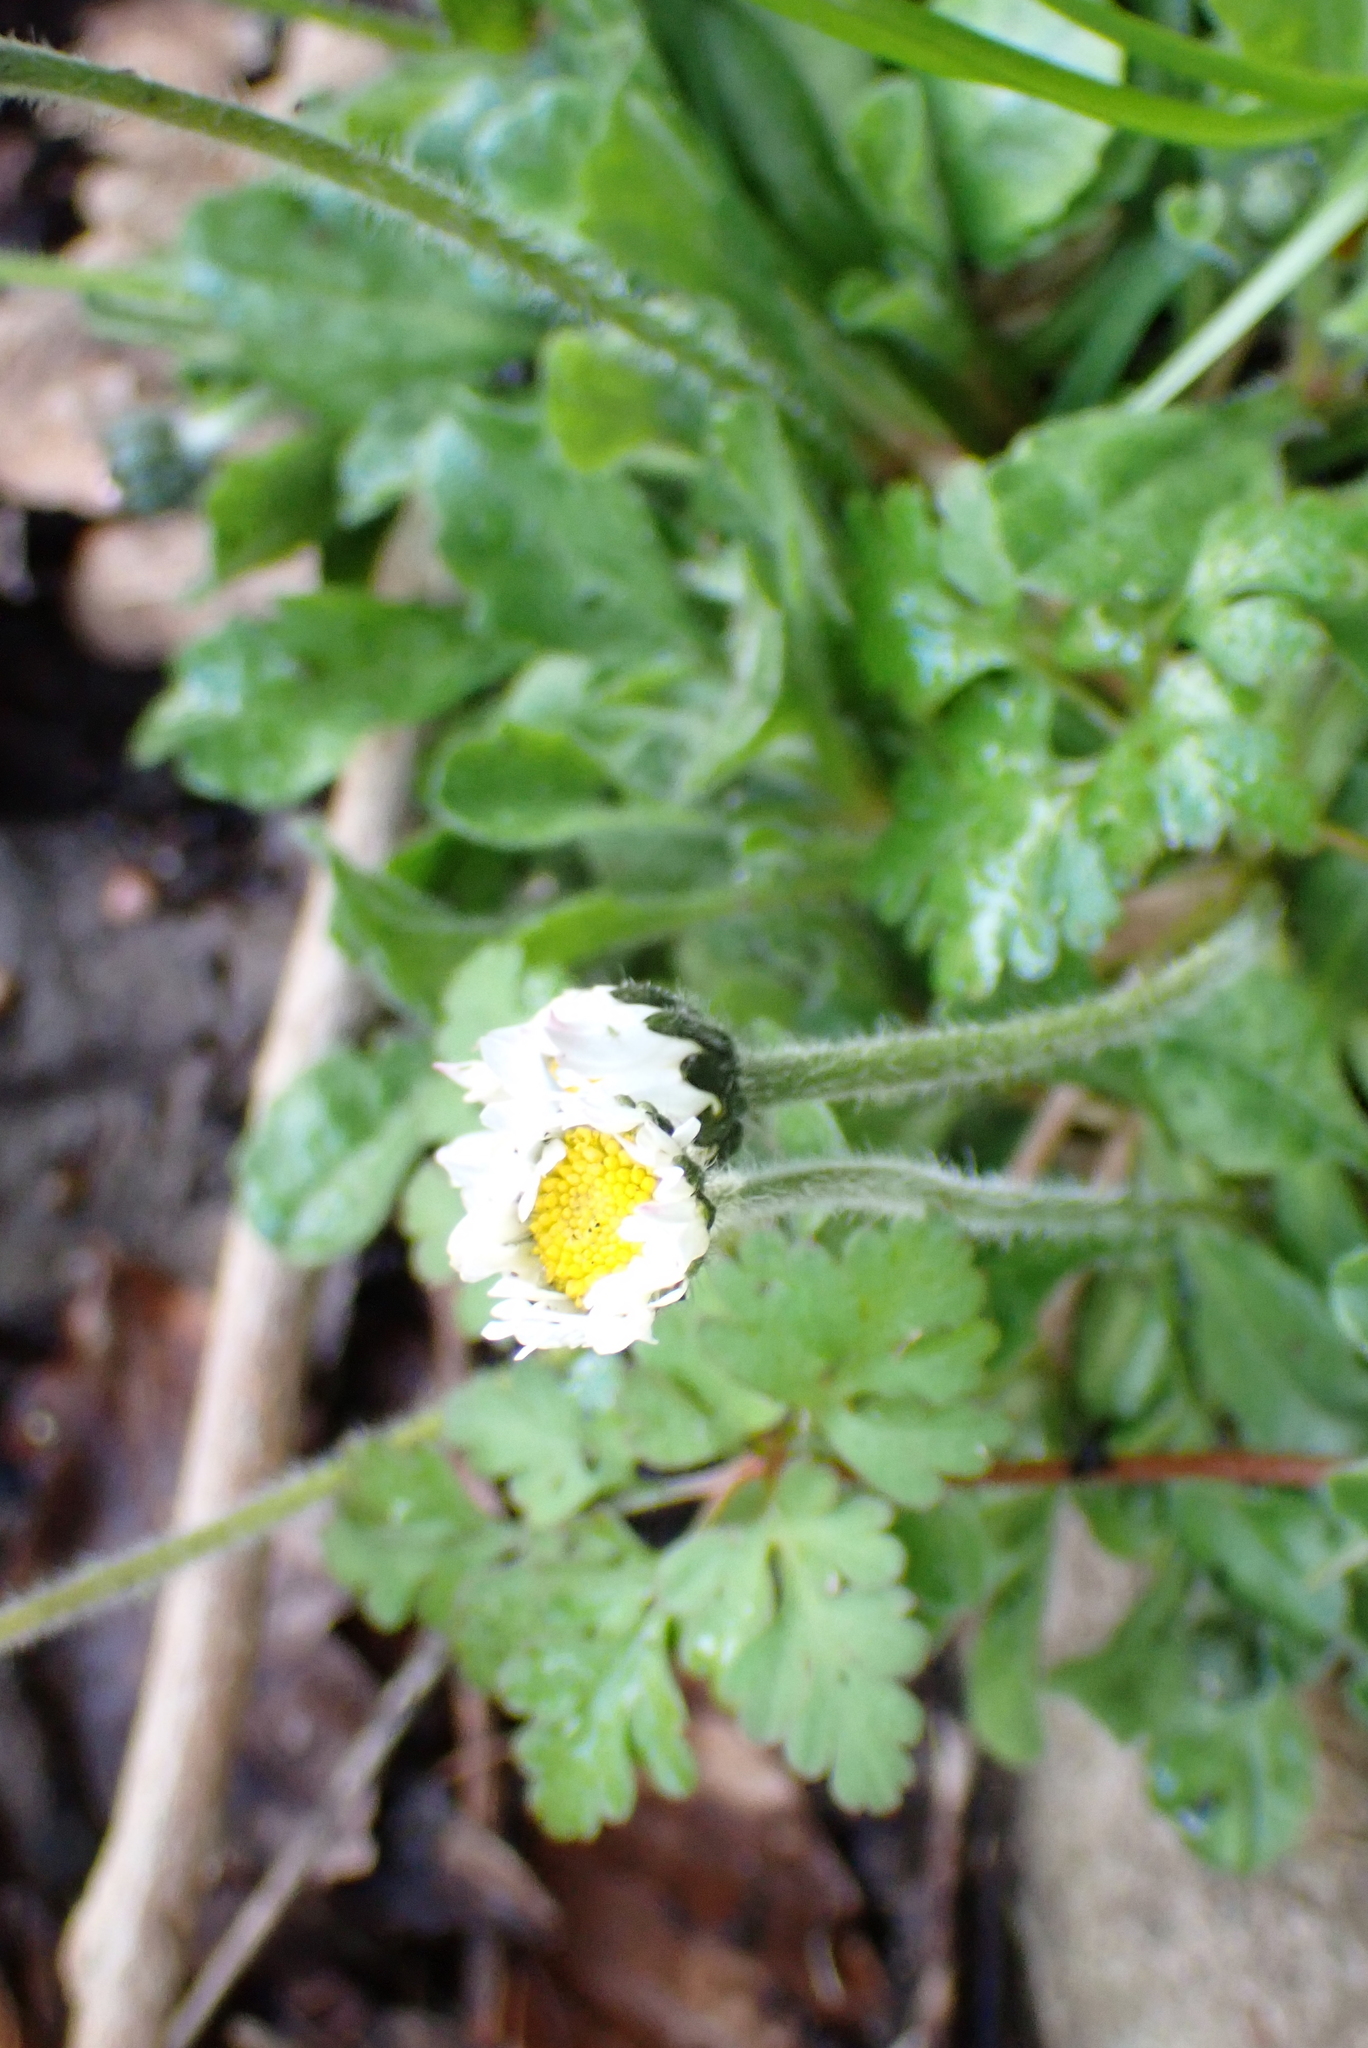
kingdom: Plantae
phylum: Tracheophyta
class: Magnoliopsida
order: Asterales
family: Asteraceae
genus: Bellis
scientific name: Bellis perennis
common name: Lawndaisy
